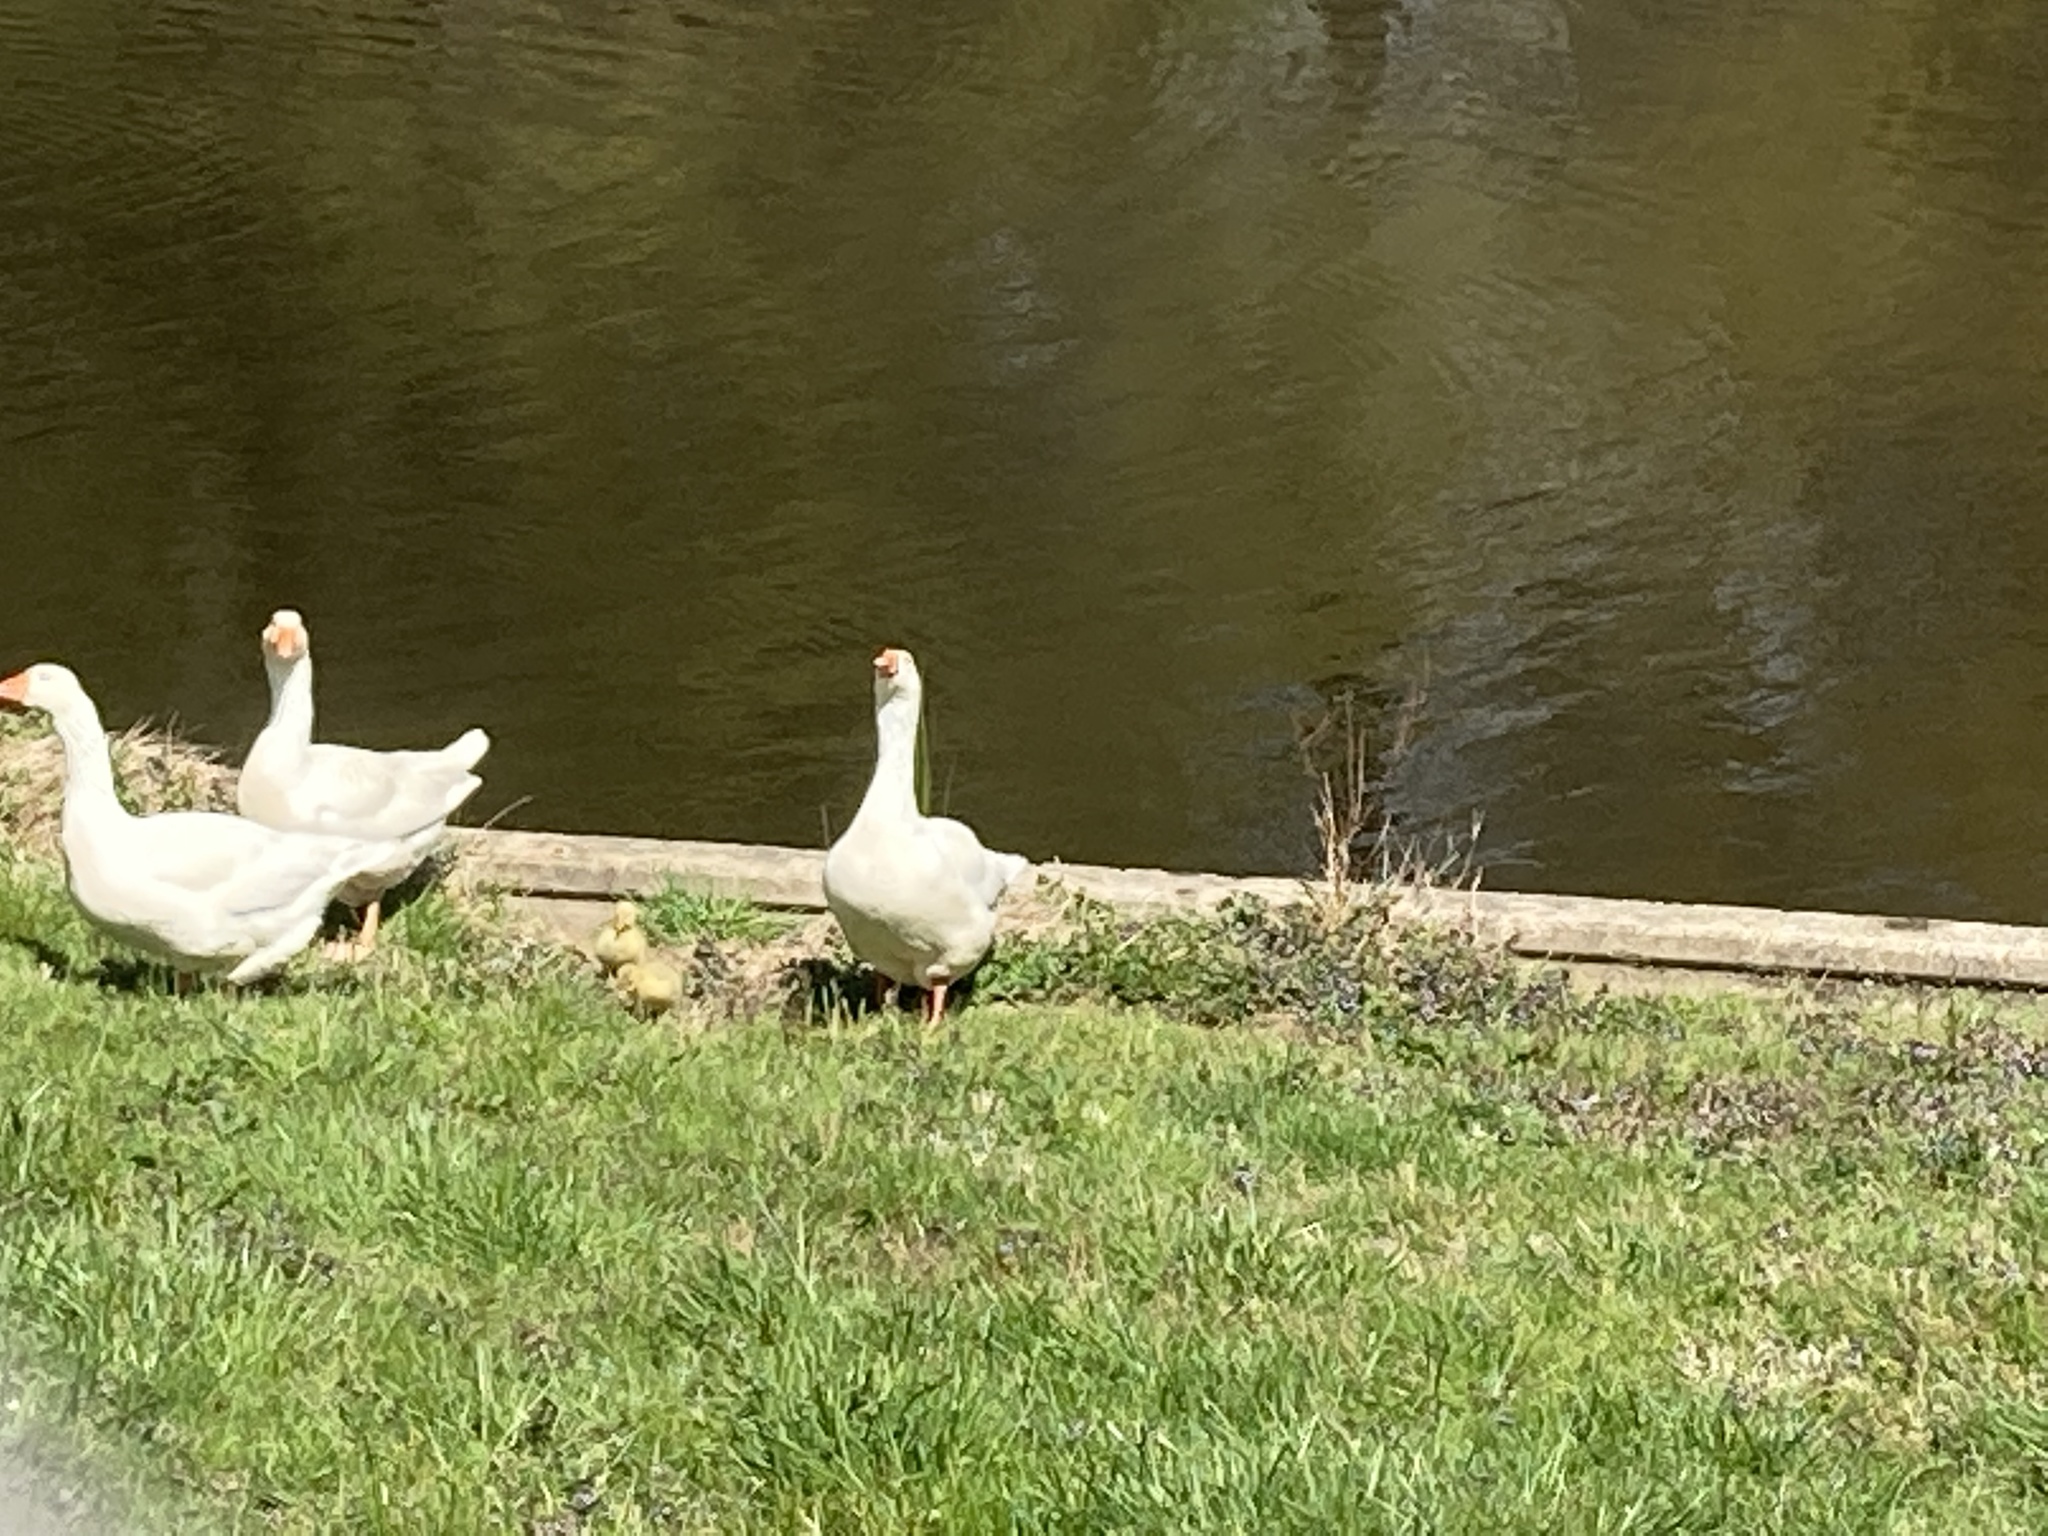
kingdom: Animalia
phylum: Chordata
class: Aves
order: Anseriformes
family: Anatidae
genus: Anser
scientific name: Anser
